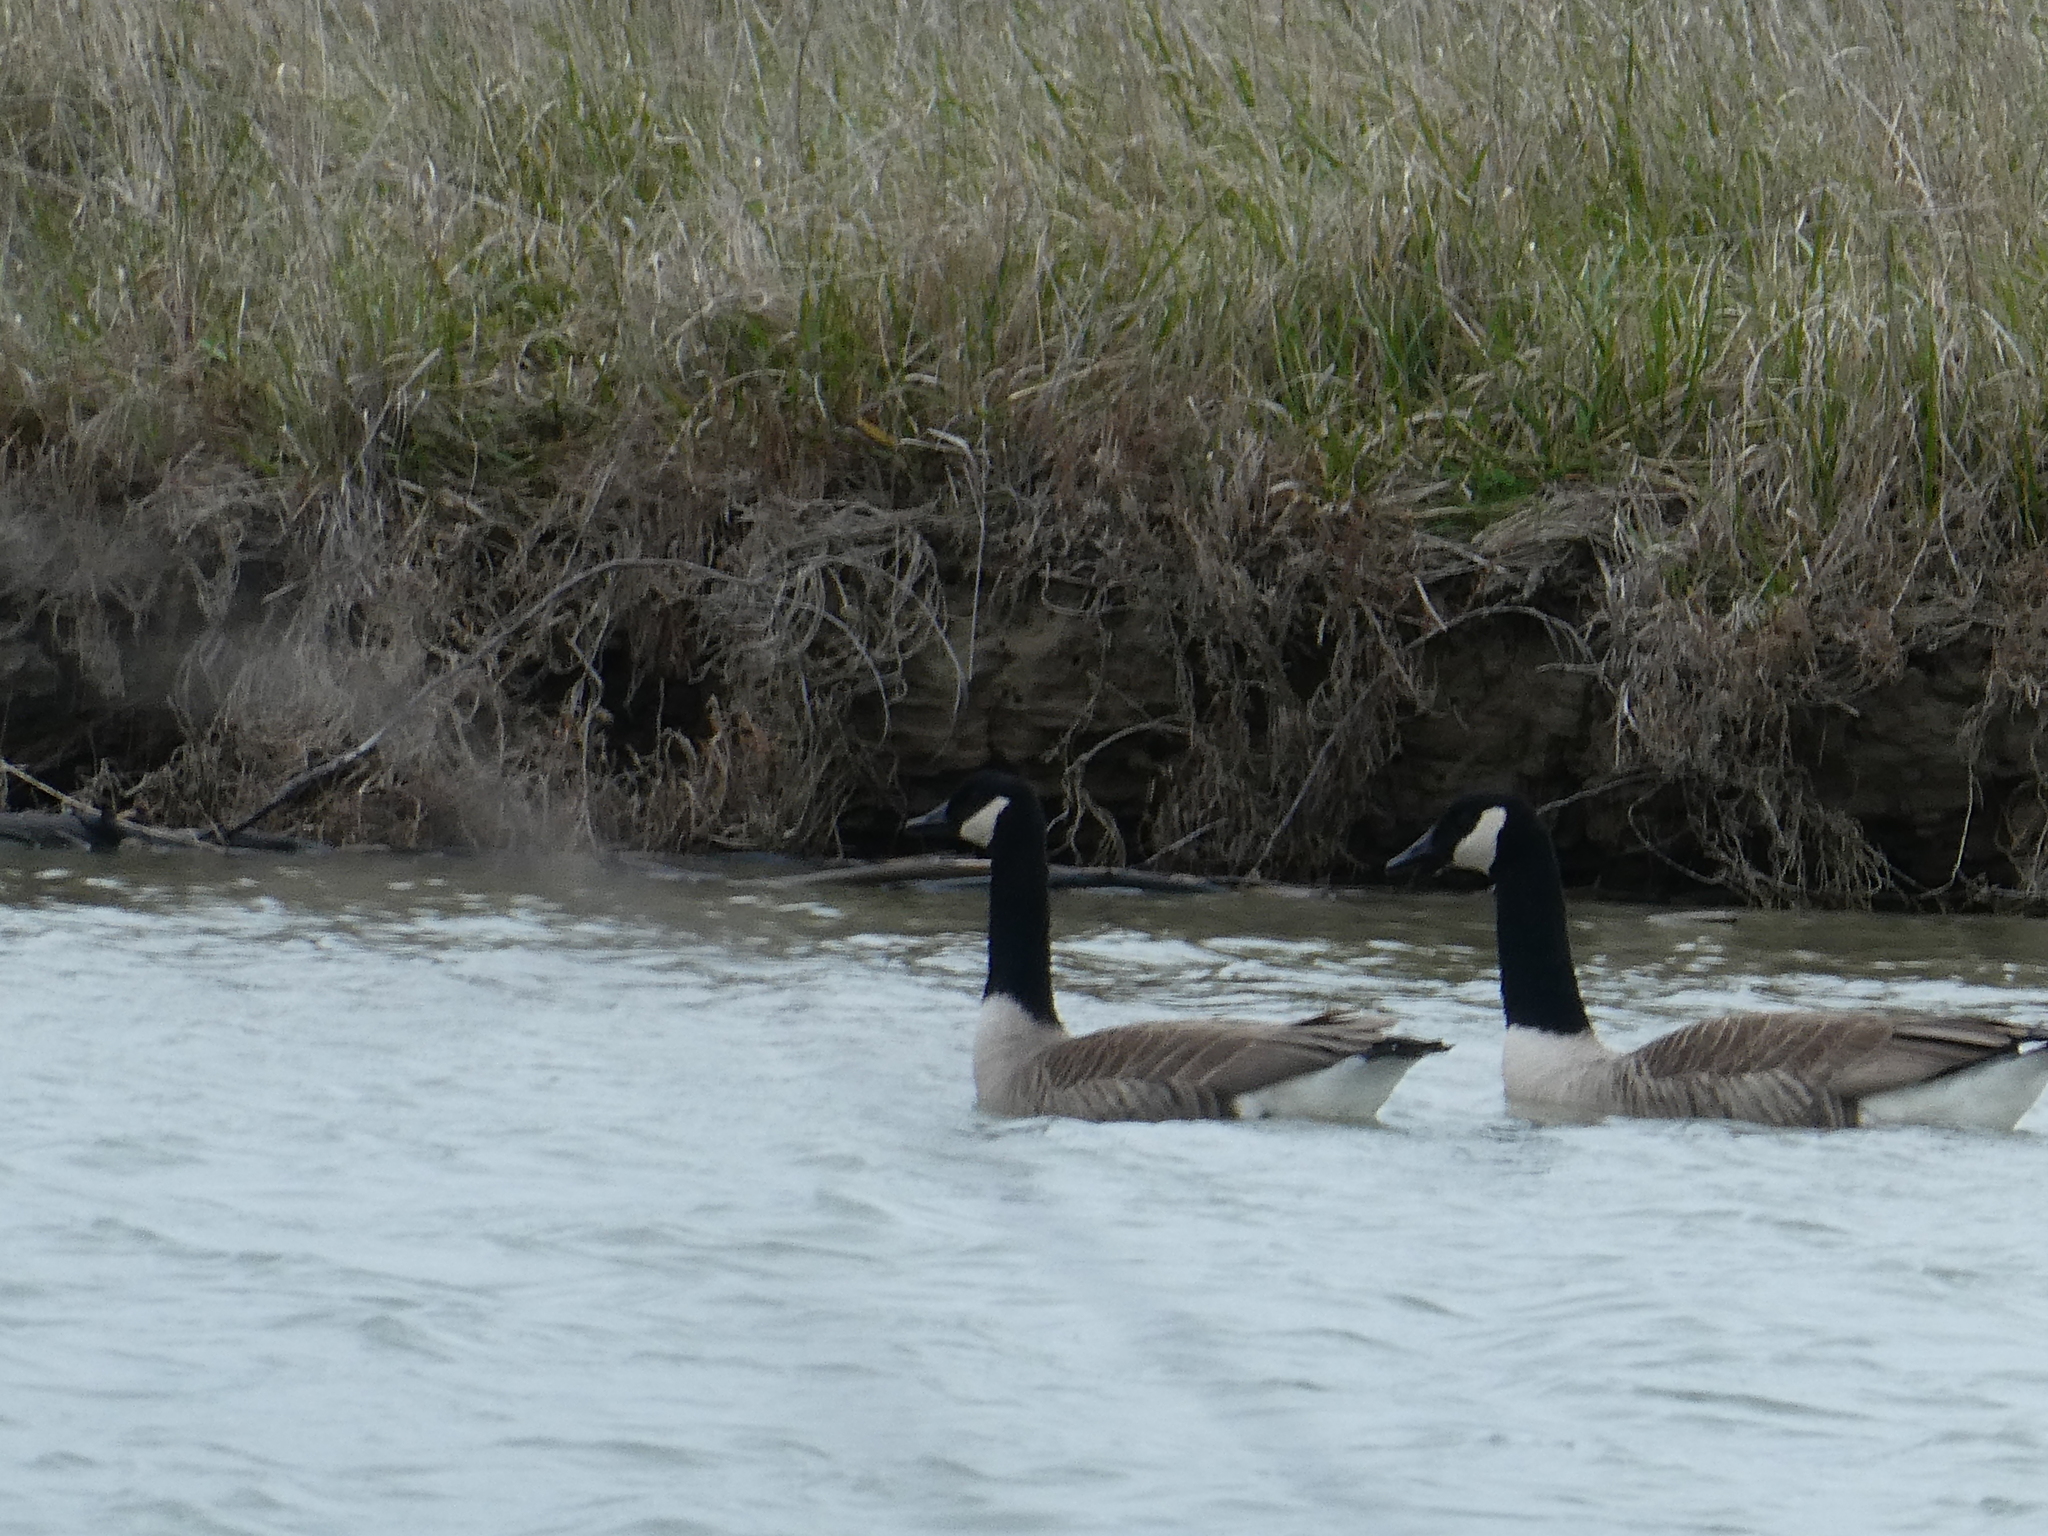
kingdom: Animalia
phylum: Chordata
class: Aves
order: Anseriformes
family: Anatidae
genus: Branta
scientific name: Branta canadensis
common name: Canada goose
